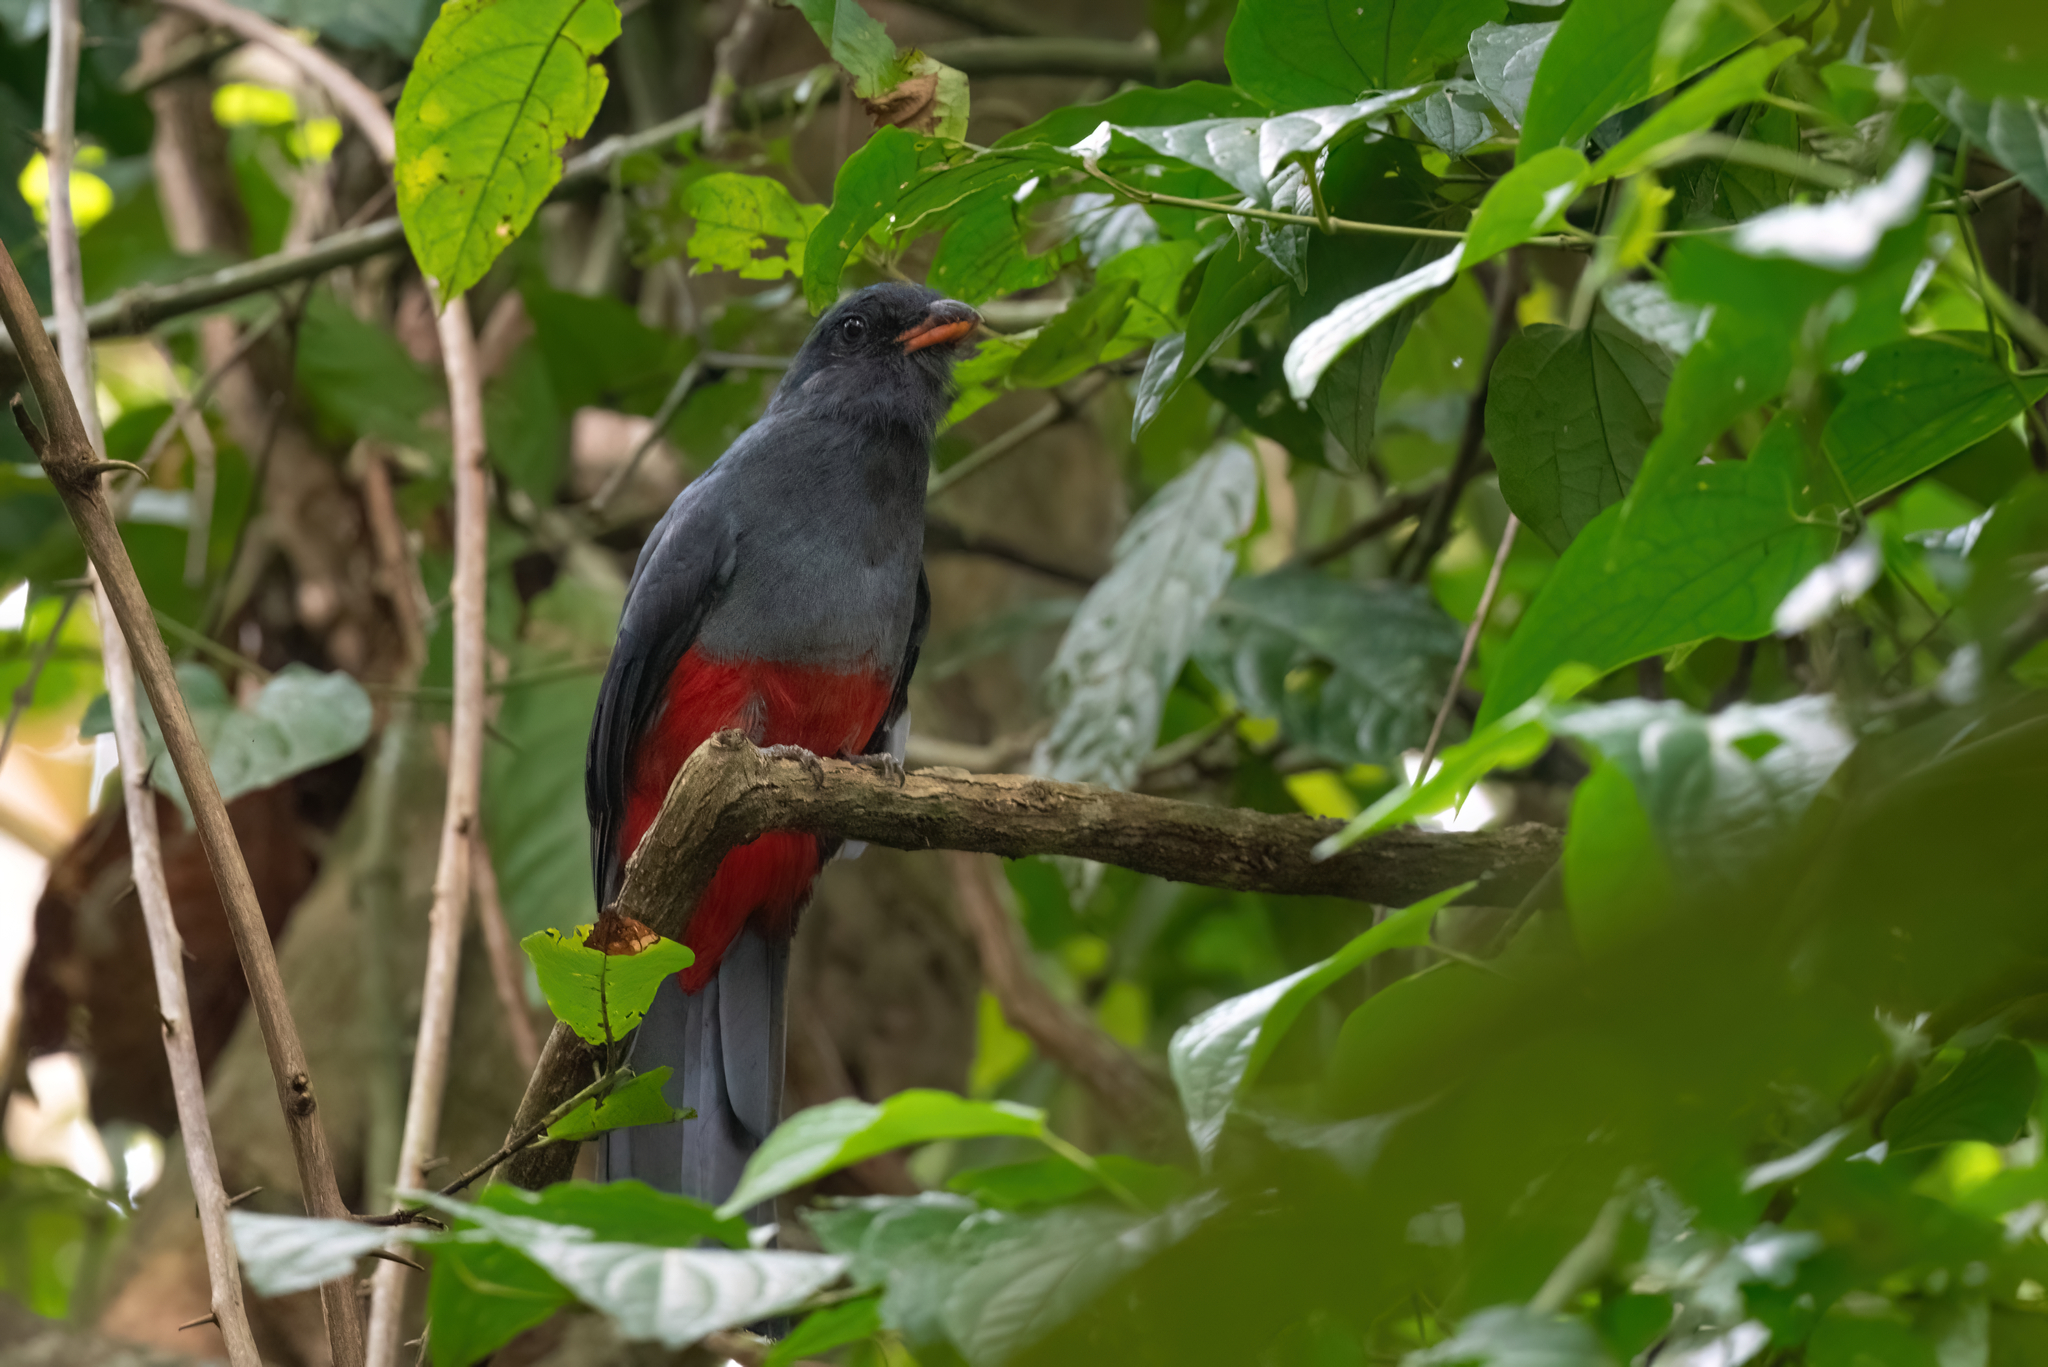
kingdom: Animalia
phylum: Chordata
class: Aves
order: Trogoniformes
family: Trogonidae
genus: Trogon
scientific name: Trogon massena
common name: Slaty-tailed trogon
